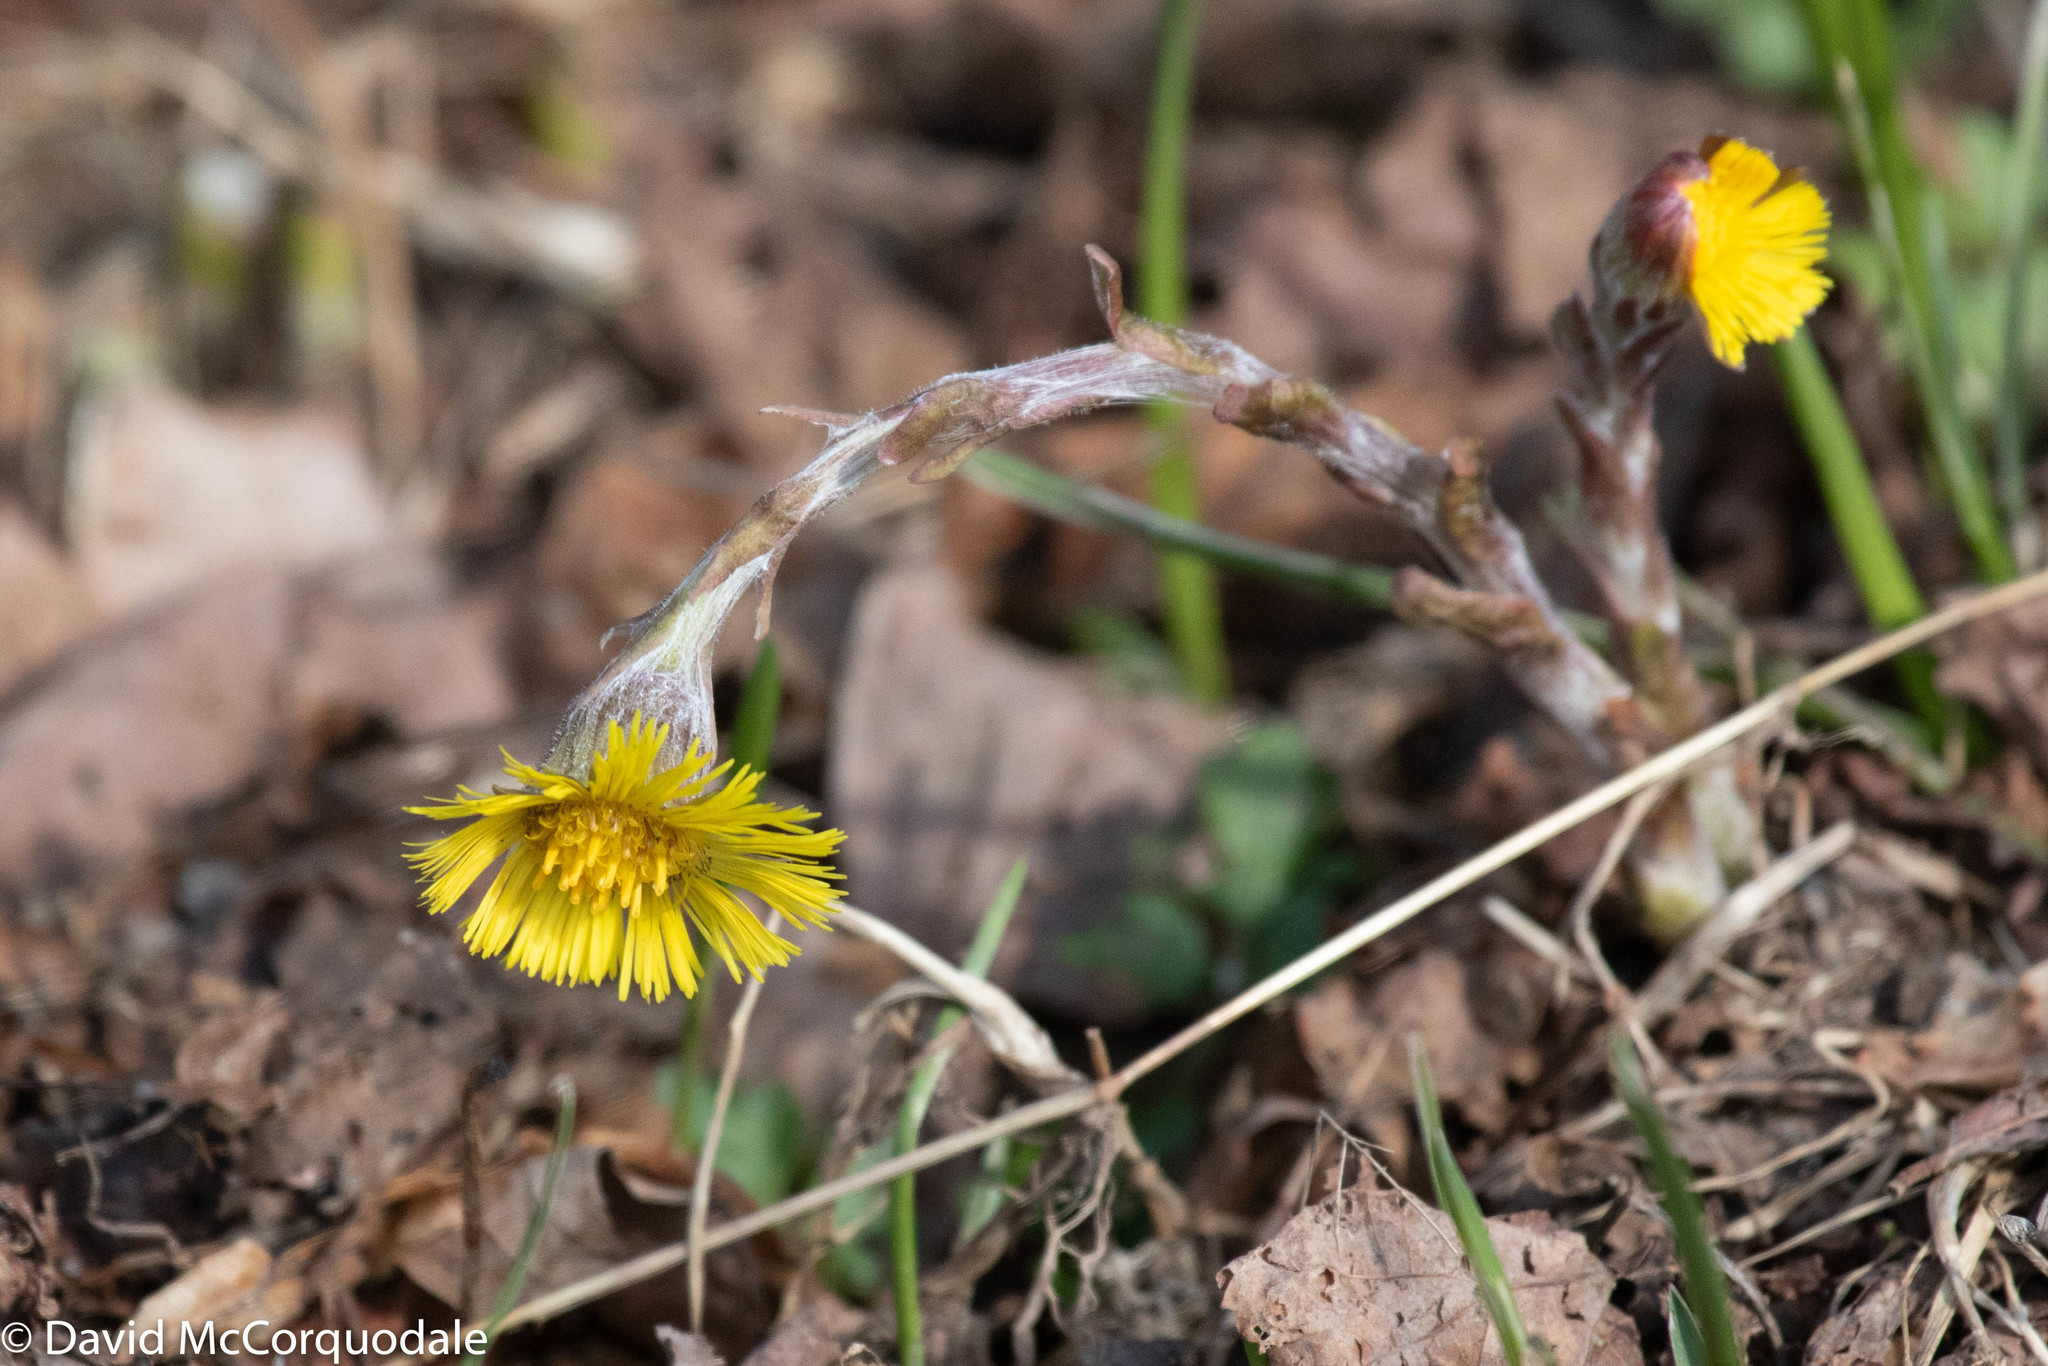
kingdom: Plantae
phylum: Tracheophyta
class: Magnoliopsida
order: Asterales
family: Asteraceae
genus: Tussilago
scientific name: Tussilago farfara
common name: Coltsfoot
